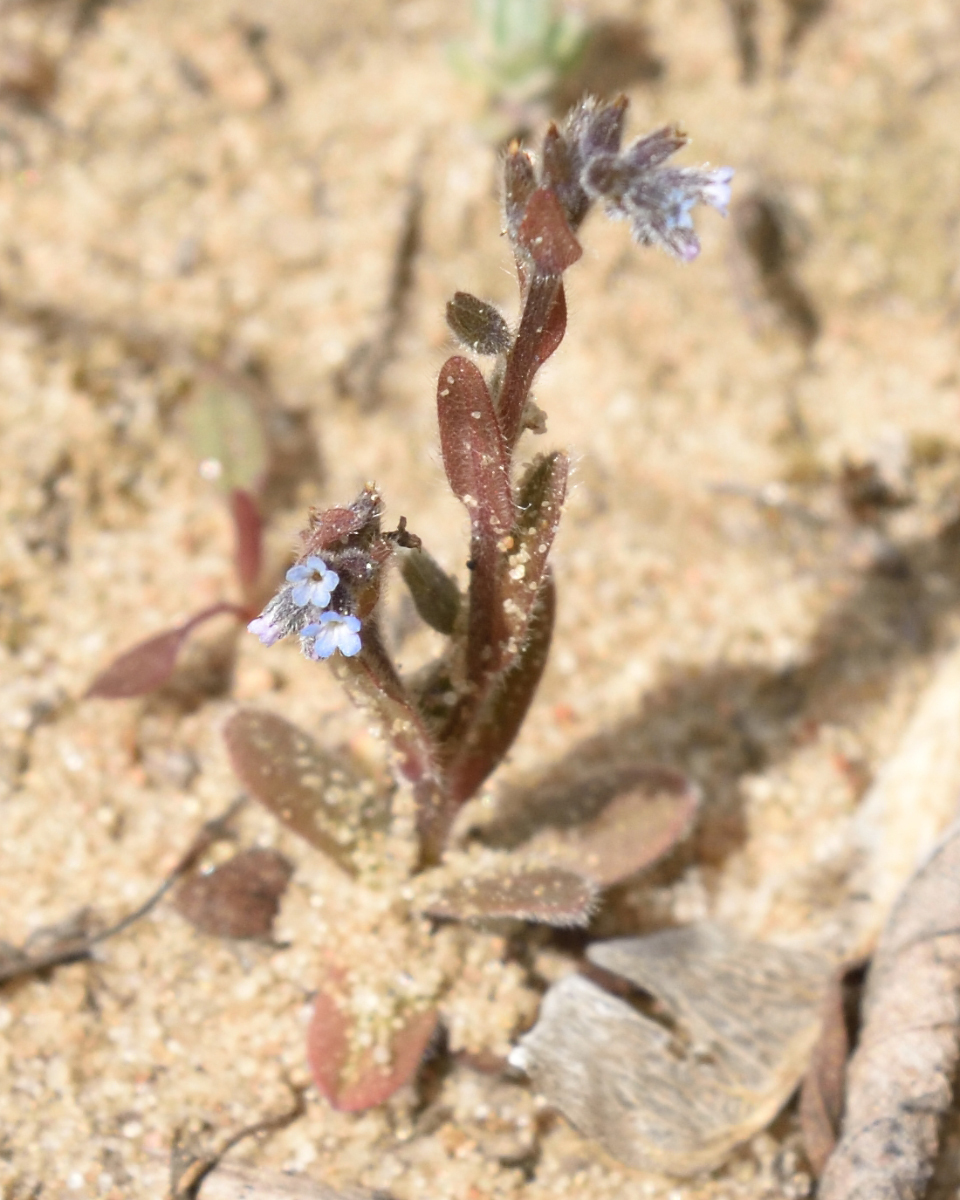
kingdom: Plantae
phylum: Tracheophyta
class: Magnoliopsida
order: Boraginales
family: Boraginaceae
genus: Myosotis
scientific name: Myosotis stricta
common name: Strict forget-me-not
